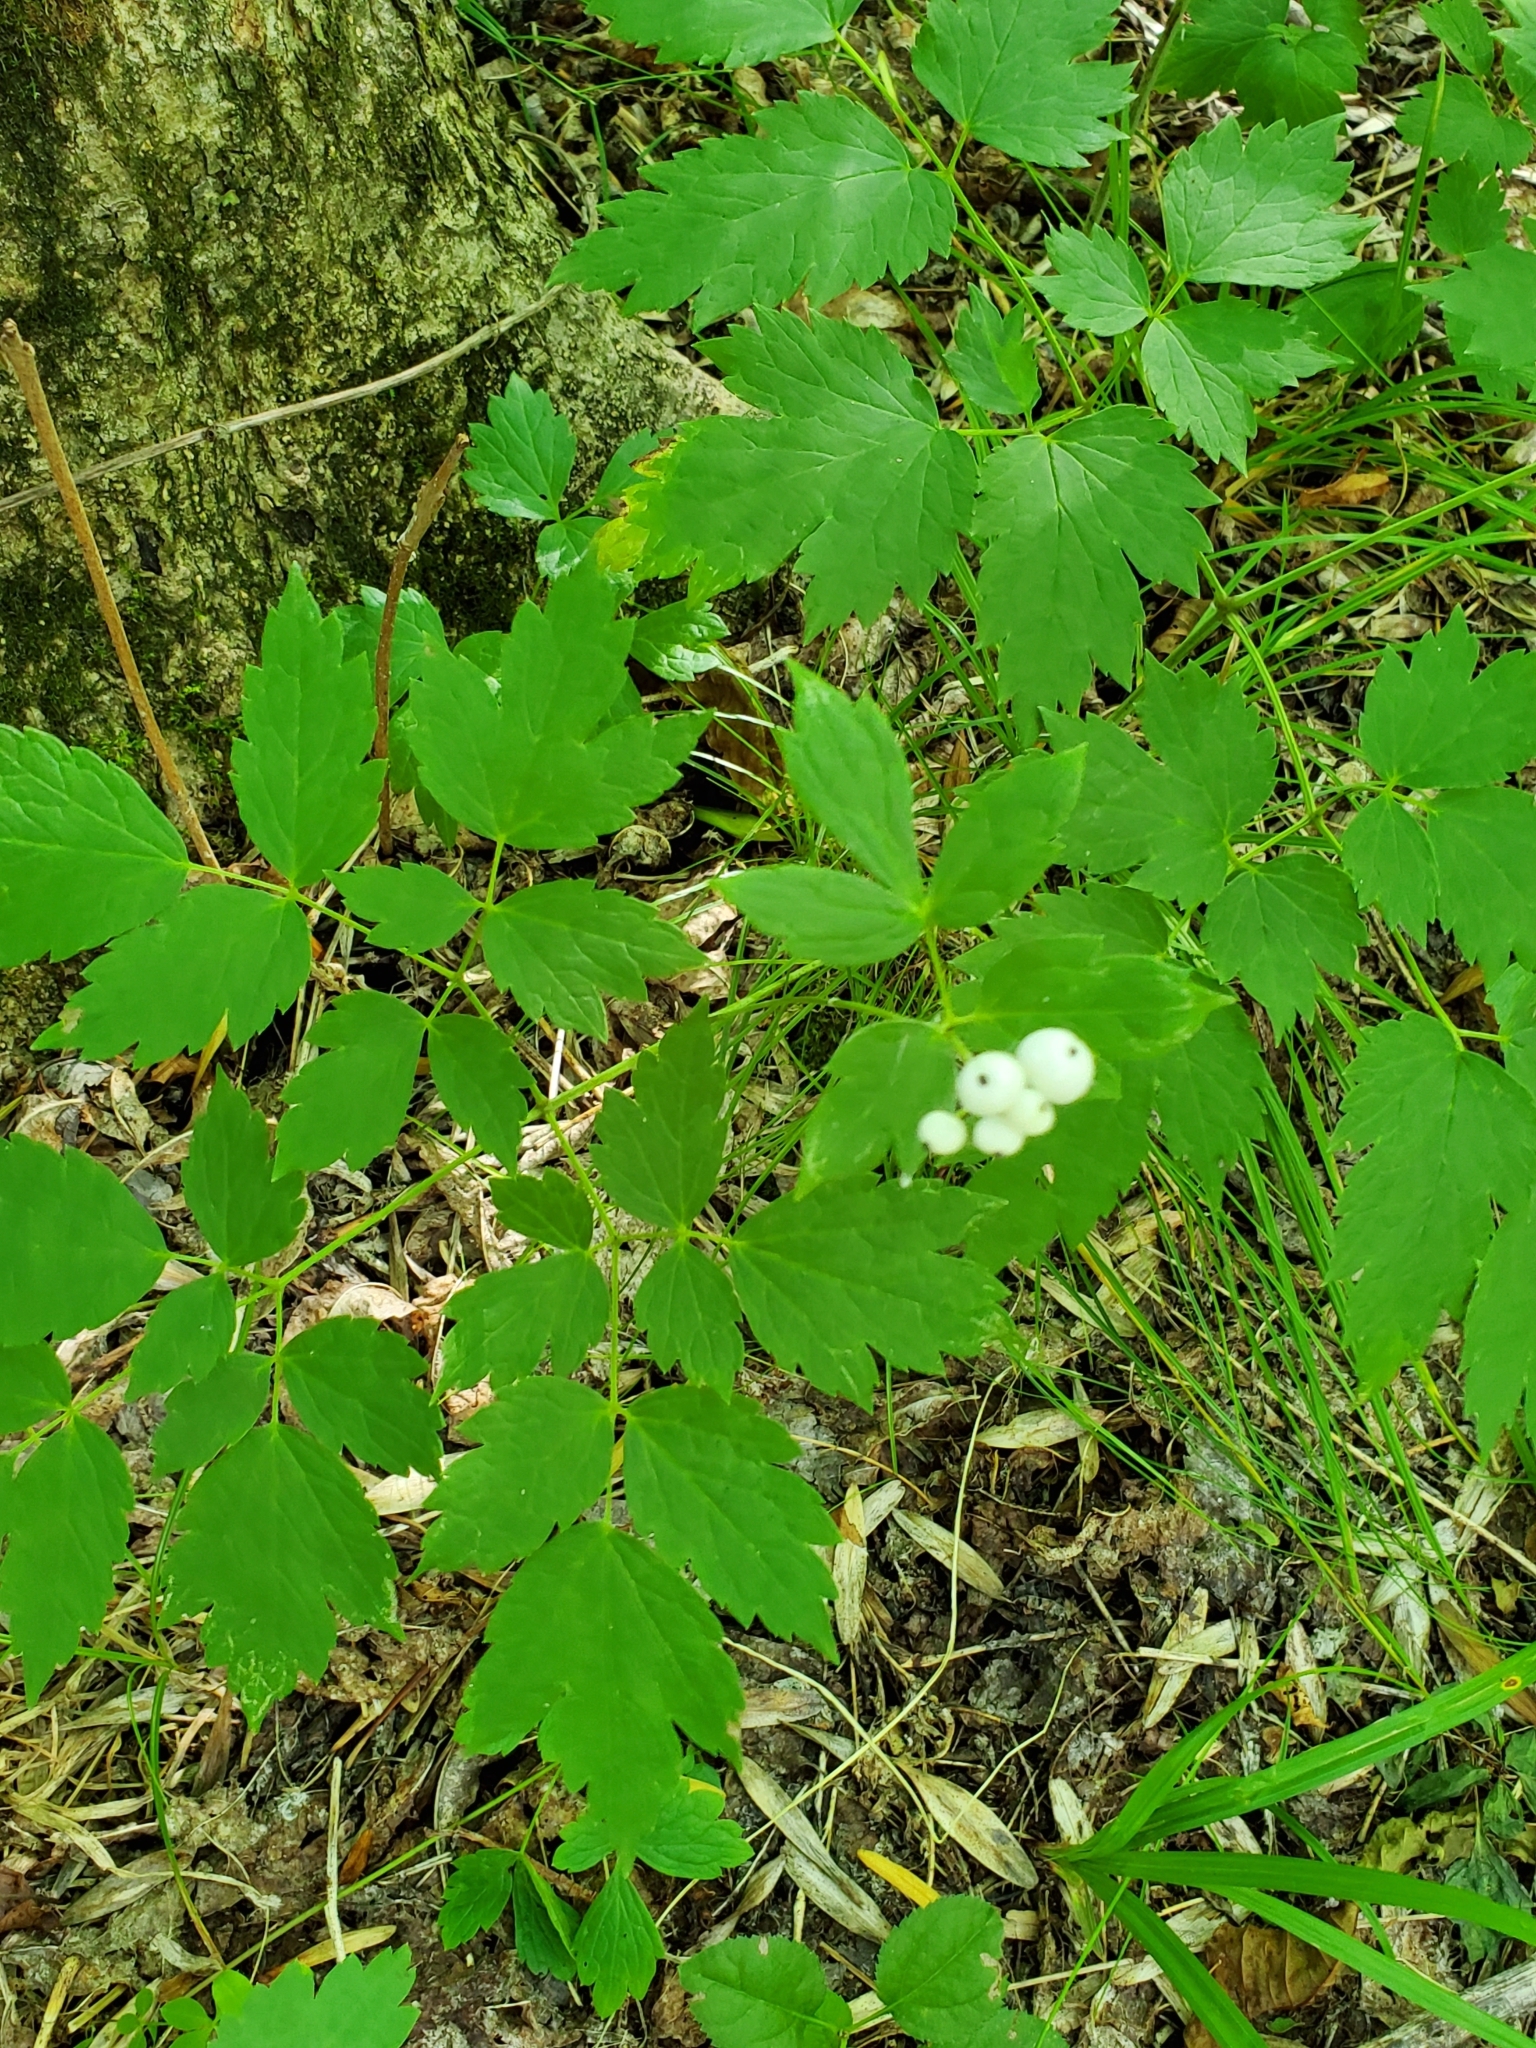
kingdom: Plantae
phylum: Tracheophyta
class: Magnoliopsida
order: Ranunculales
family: Ranunculaceae
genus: Actaea
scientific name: Actaea rubra
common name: Red baneberry
